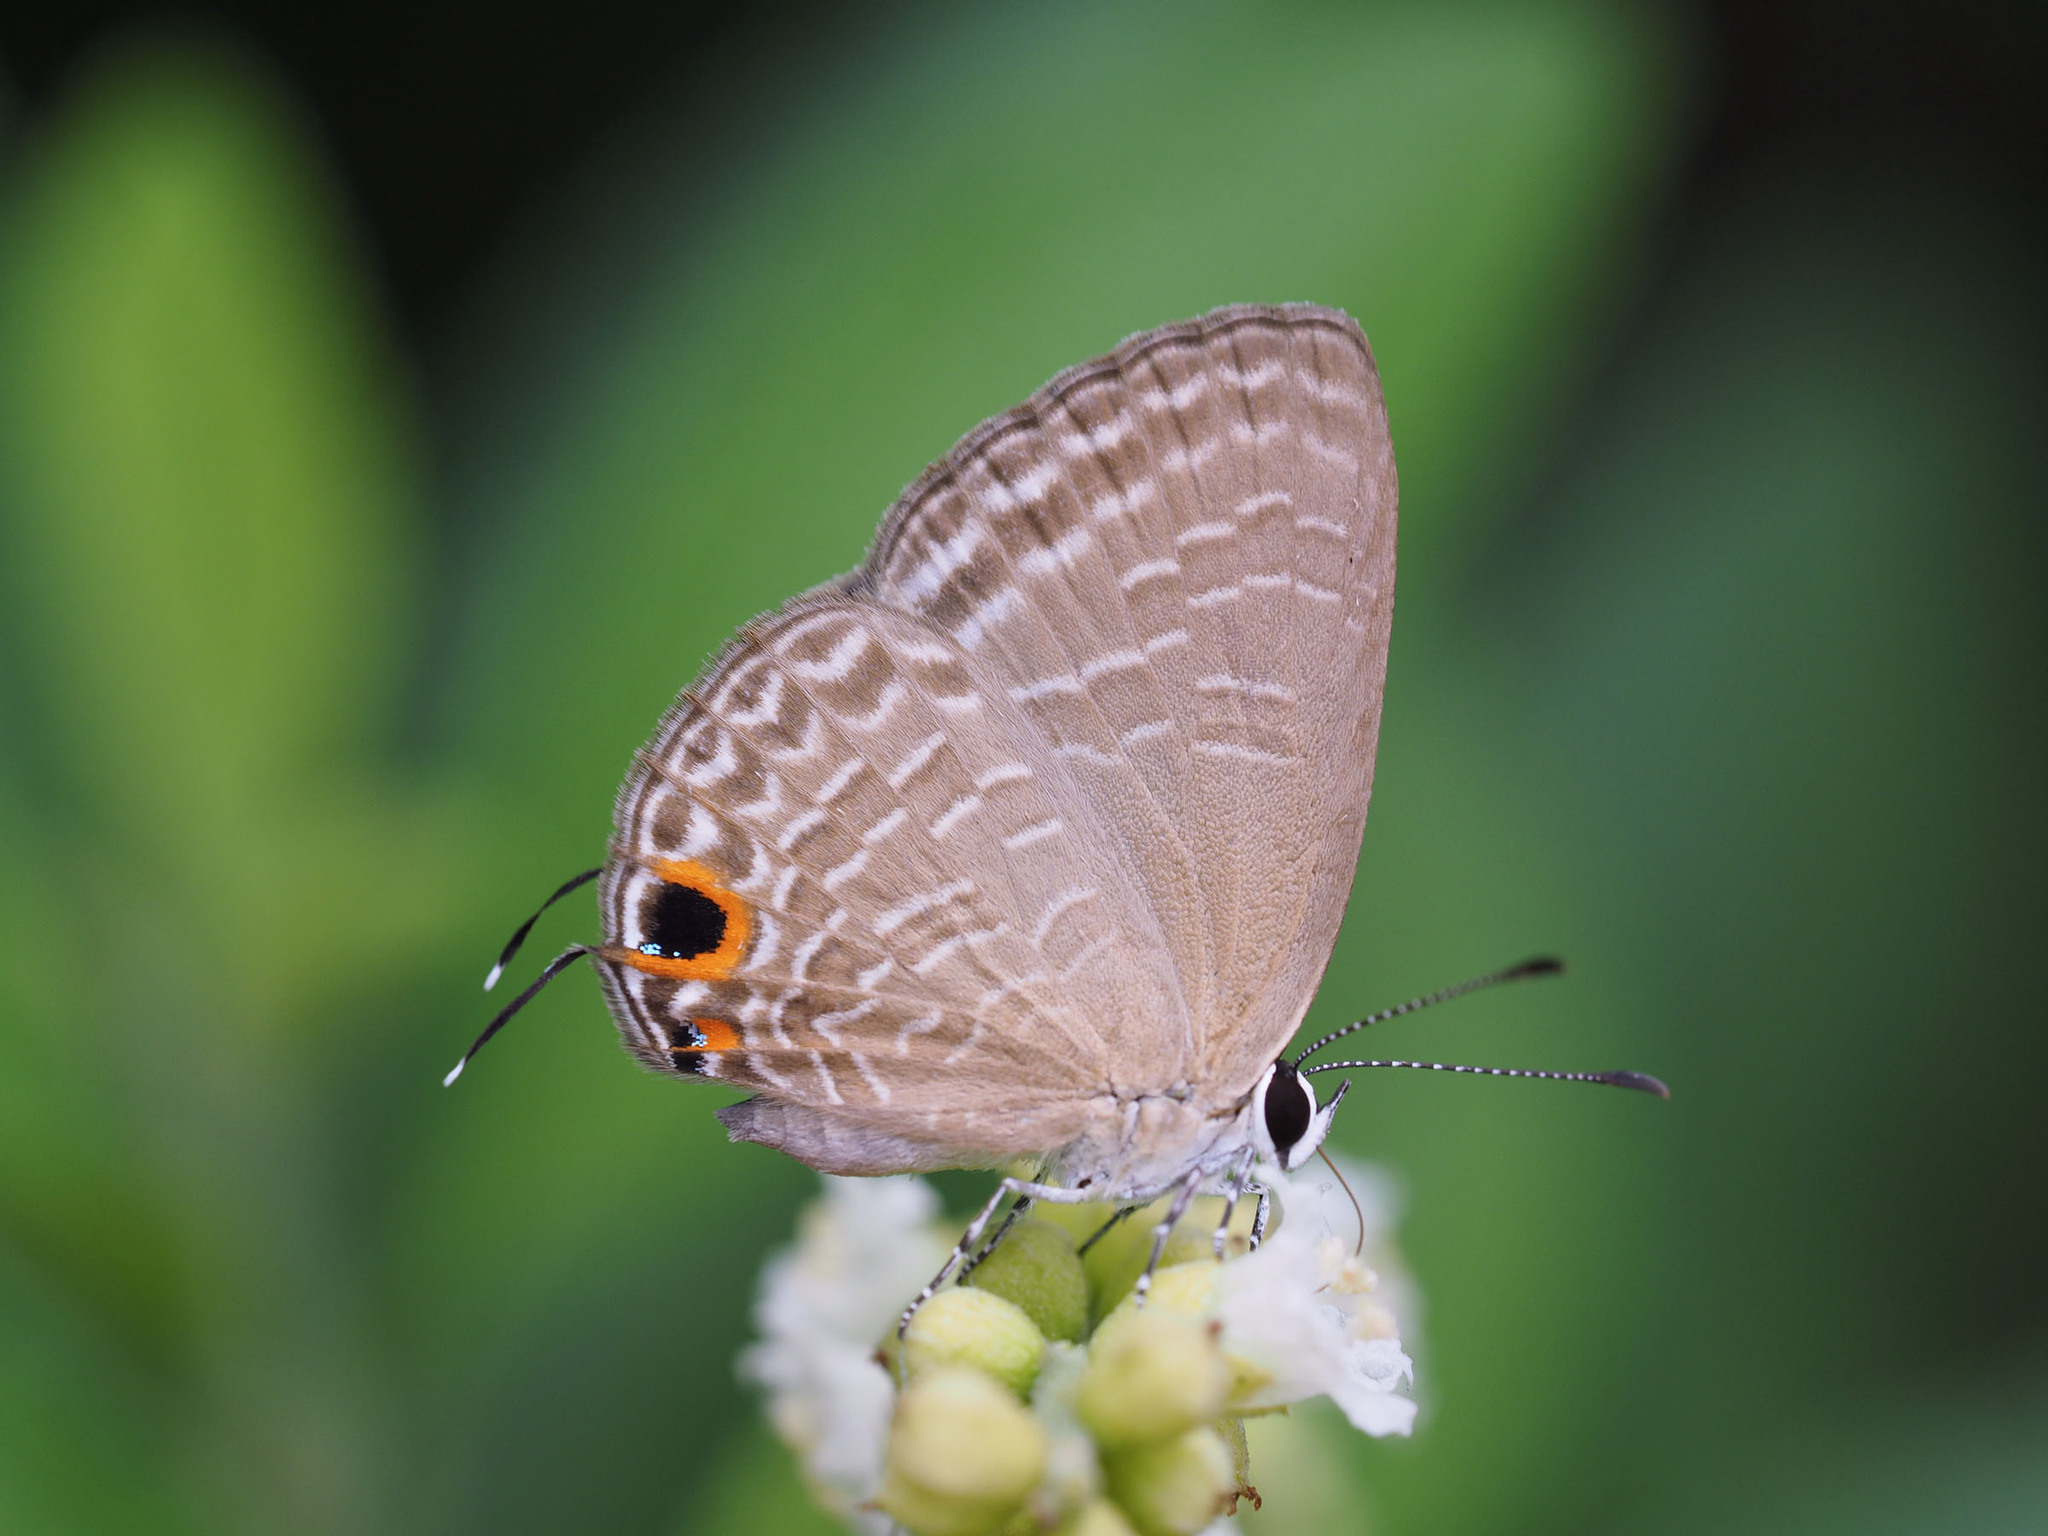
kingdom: Animalia
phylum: Arthropoda
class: Insecta
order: Lepidoptera
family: Lycaenidae
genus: Jamides
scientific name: Jamides bochus
